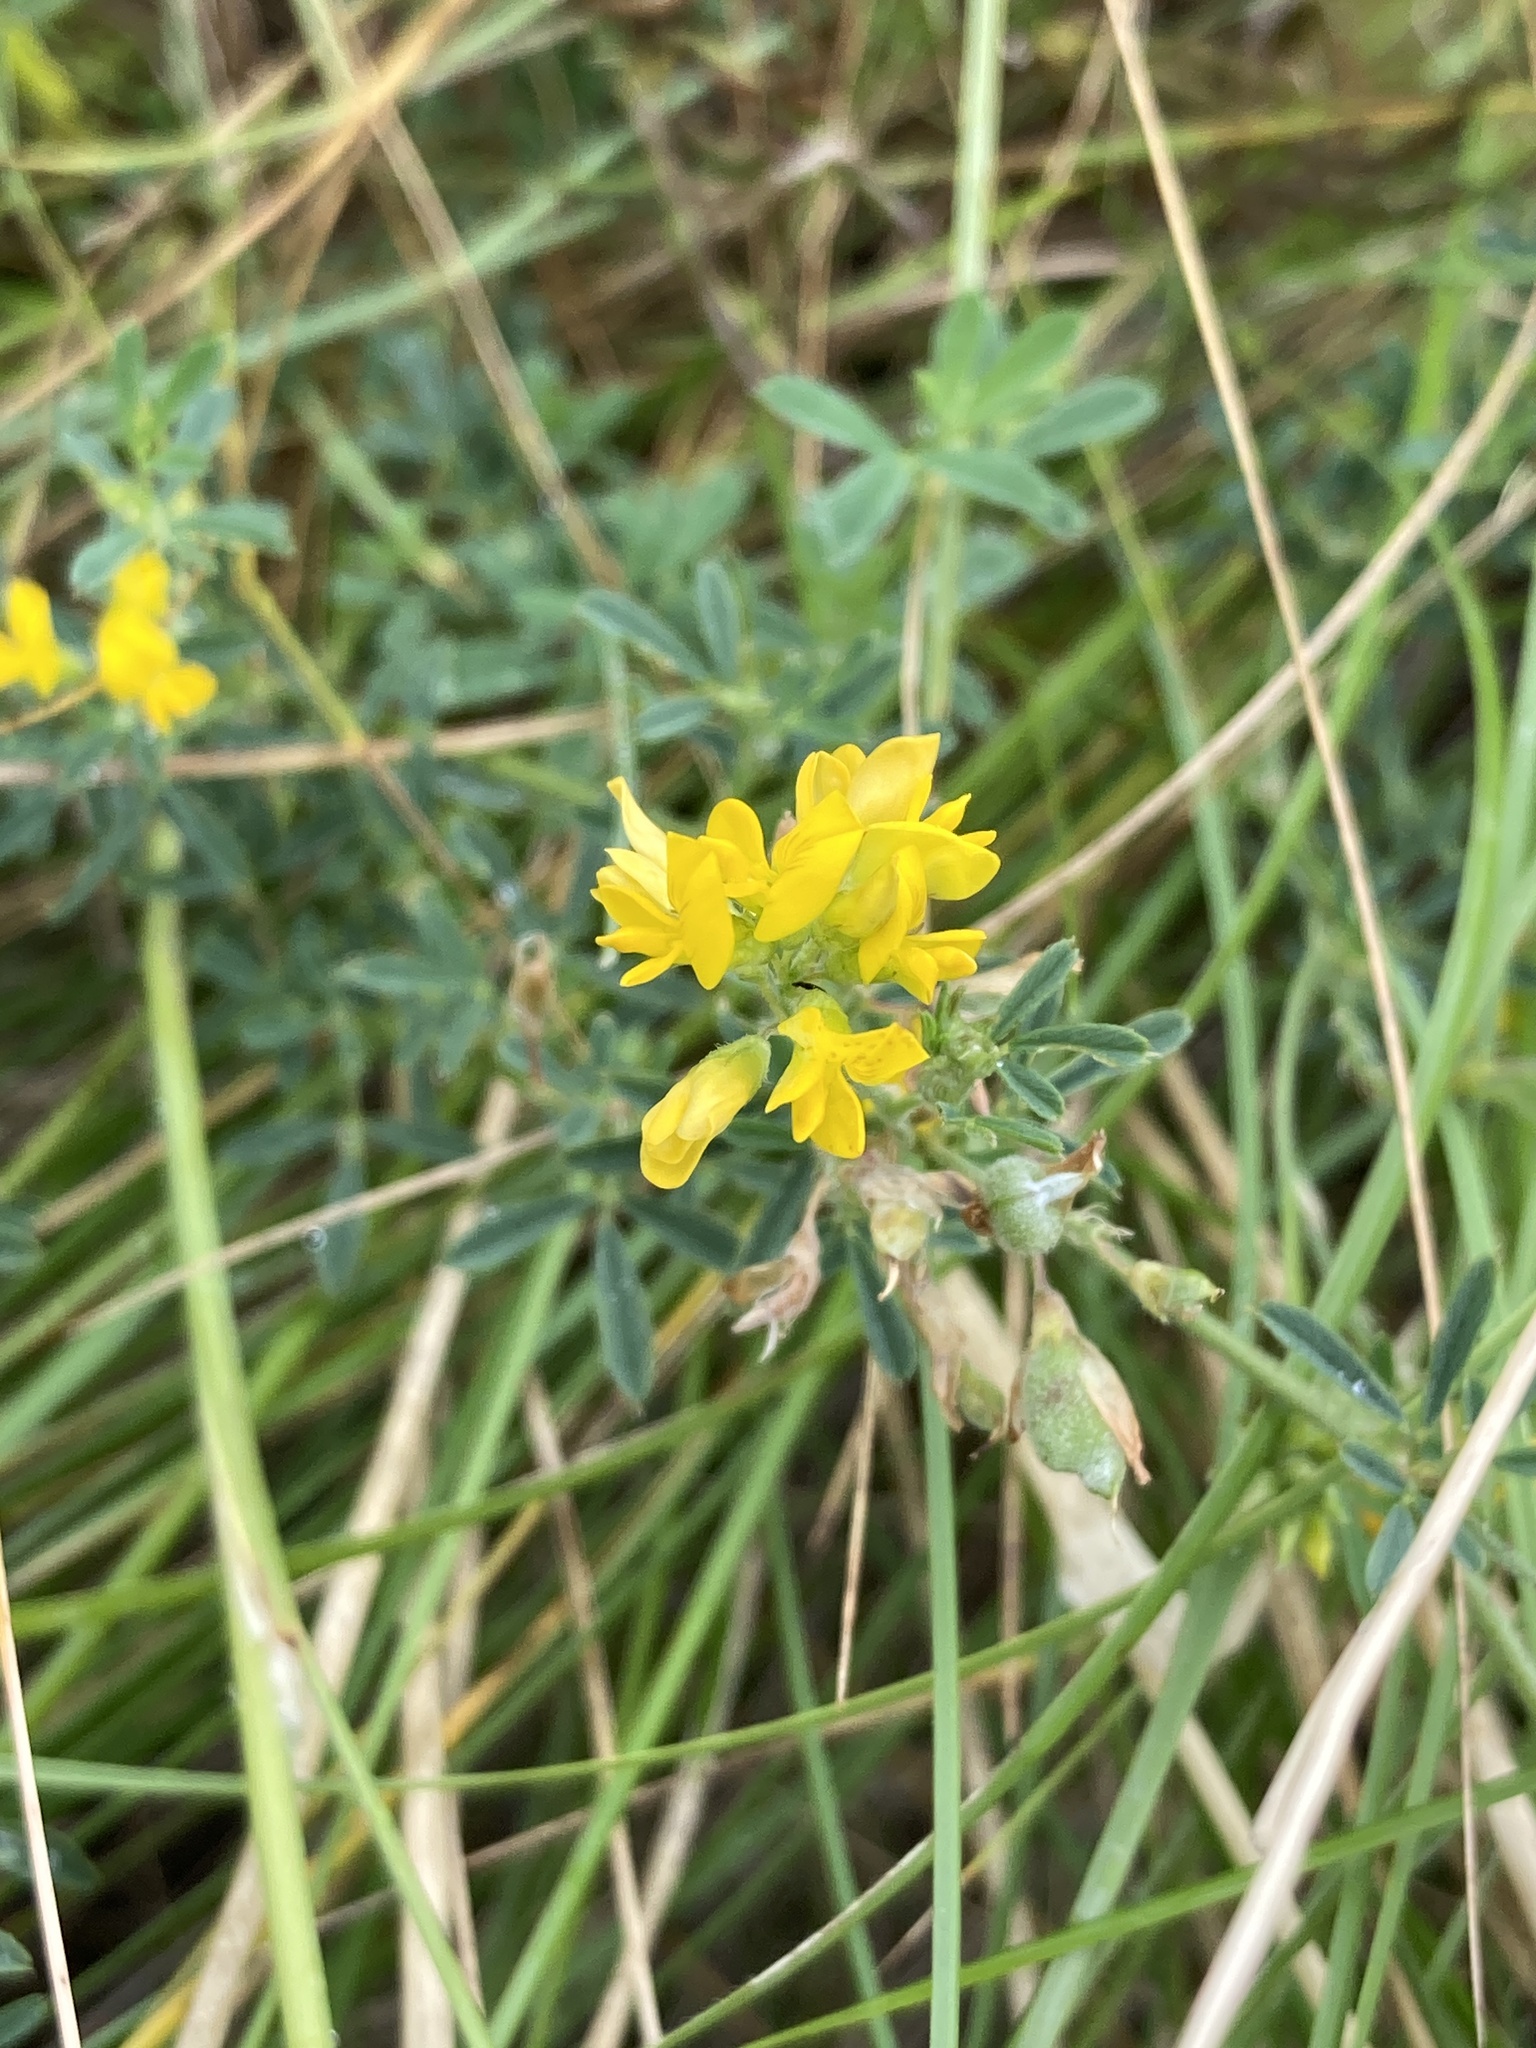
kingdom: Plantae
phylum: Tracheophyta
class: Magnoliopsida
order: Fabales
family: Fabaceae
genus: Medicago
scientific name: Medicago falcata
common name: Sickle medick
